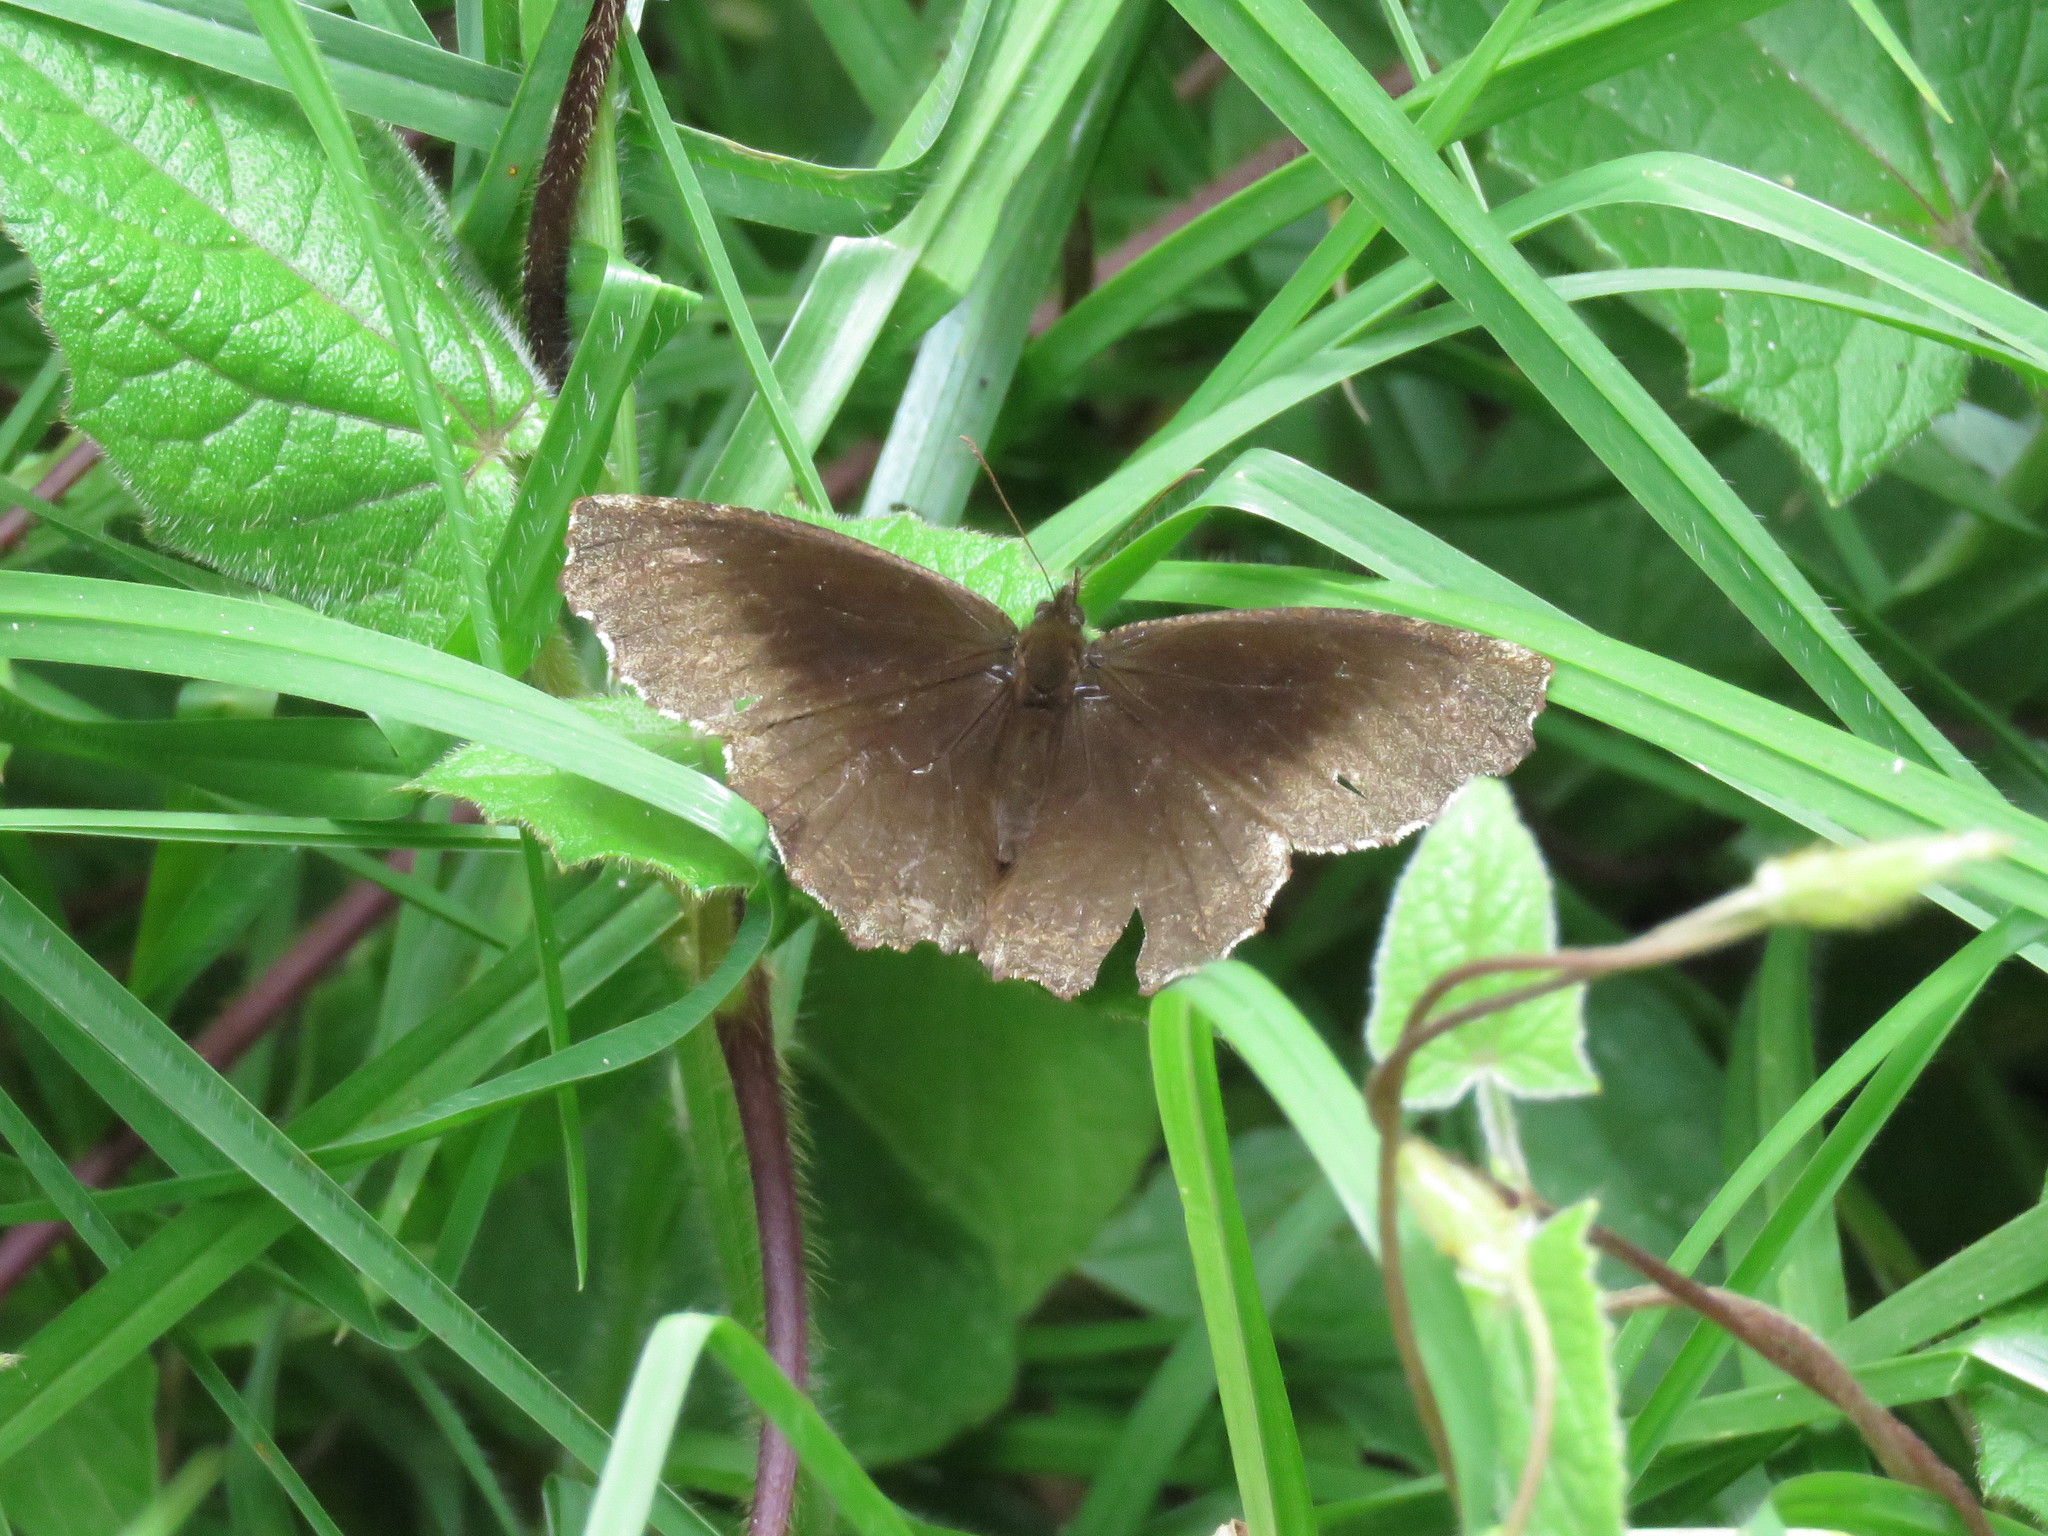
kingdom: Animalia
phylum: Arthropoda
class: Insecta
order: Lepidoptera
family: Nymphalidae
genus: Panyapedaliodes
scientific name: Panyapedaliodes drymaea
